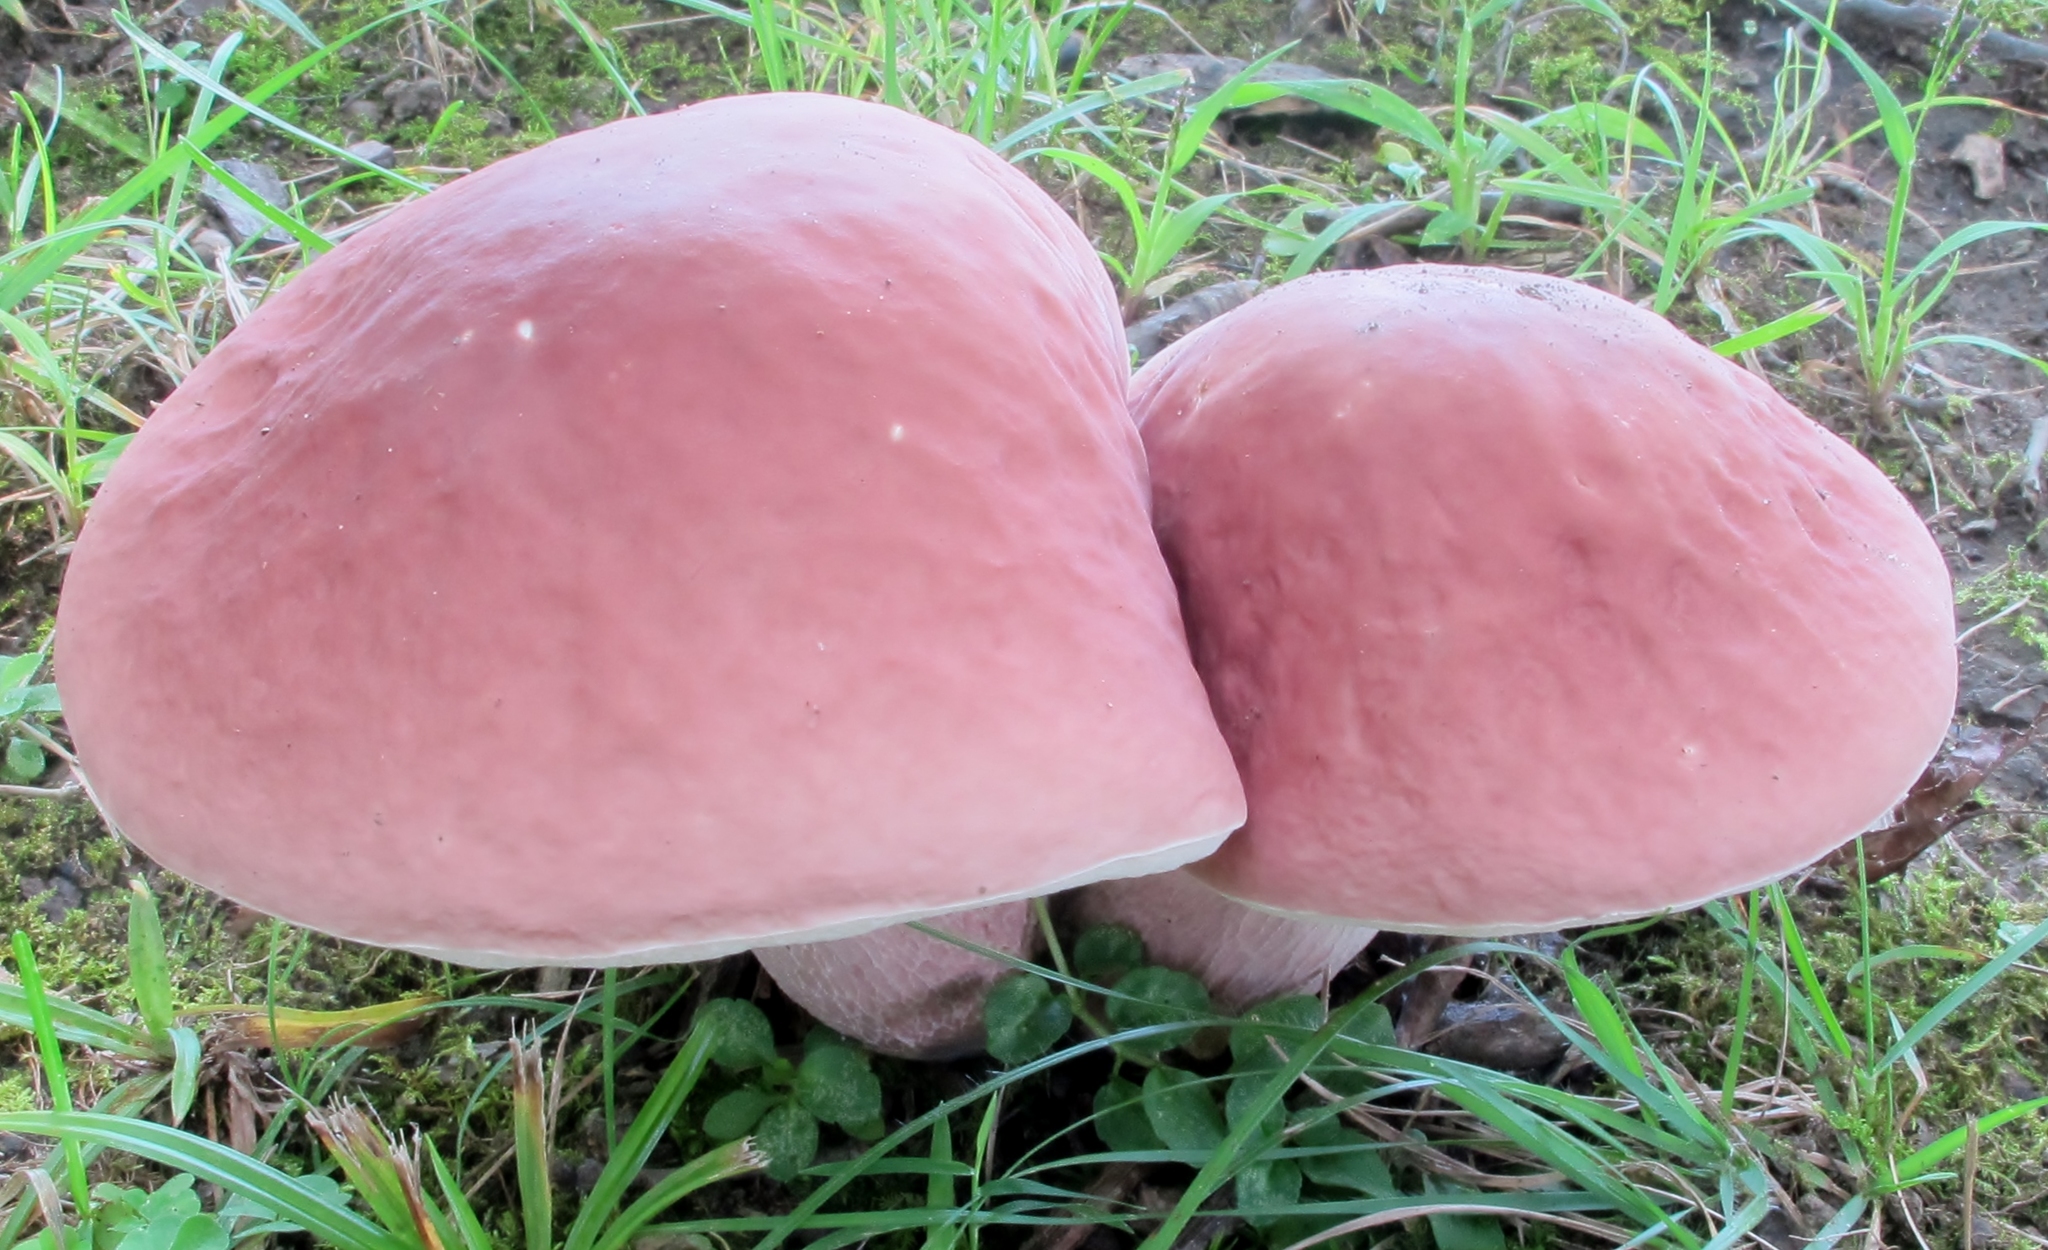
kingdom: Fungi
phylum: Basidiomycota
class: Agaricomycetes
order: Boletales
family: Boletaceae
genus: Xanthoconium
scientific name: Xanthoconium separans
